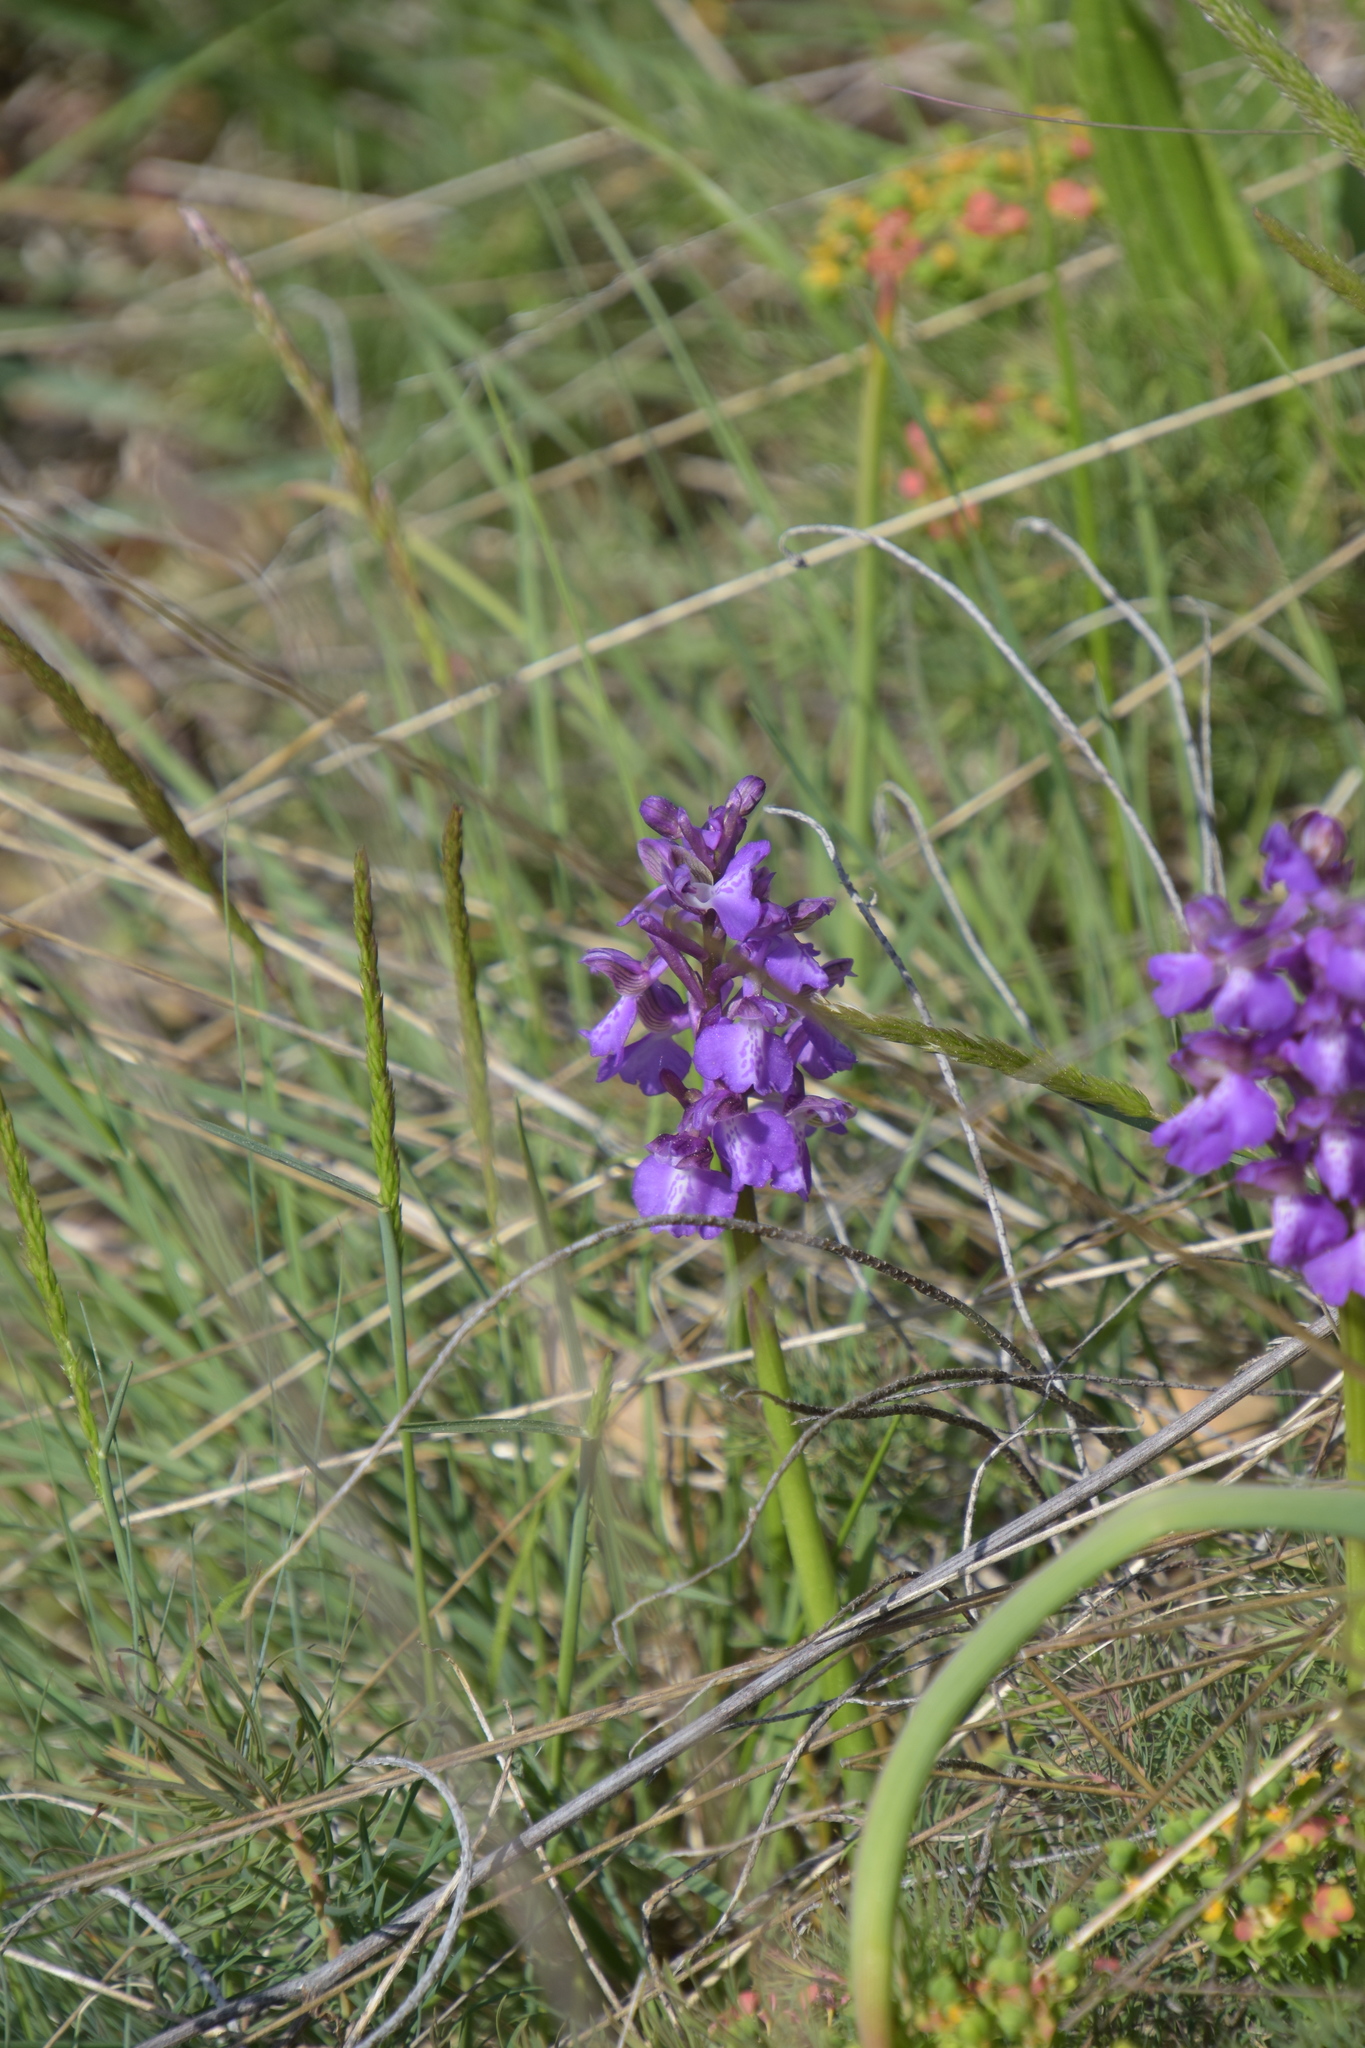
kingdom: Plantae
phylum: Tracheophyta
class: Liliopsida
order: Asparagales
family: Orchidaceae
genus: Anacamptis
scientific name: Anacamptis morio
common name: Green-winged orchid
